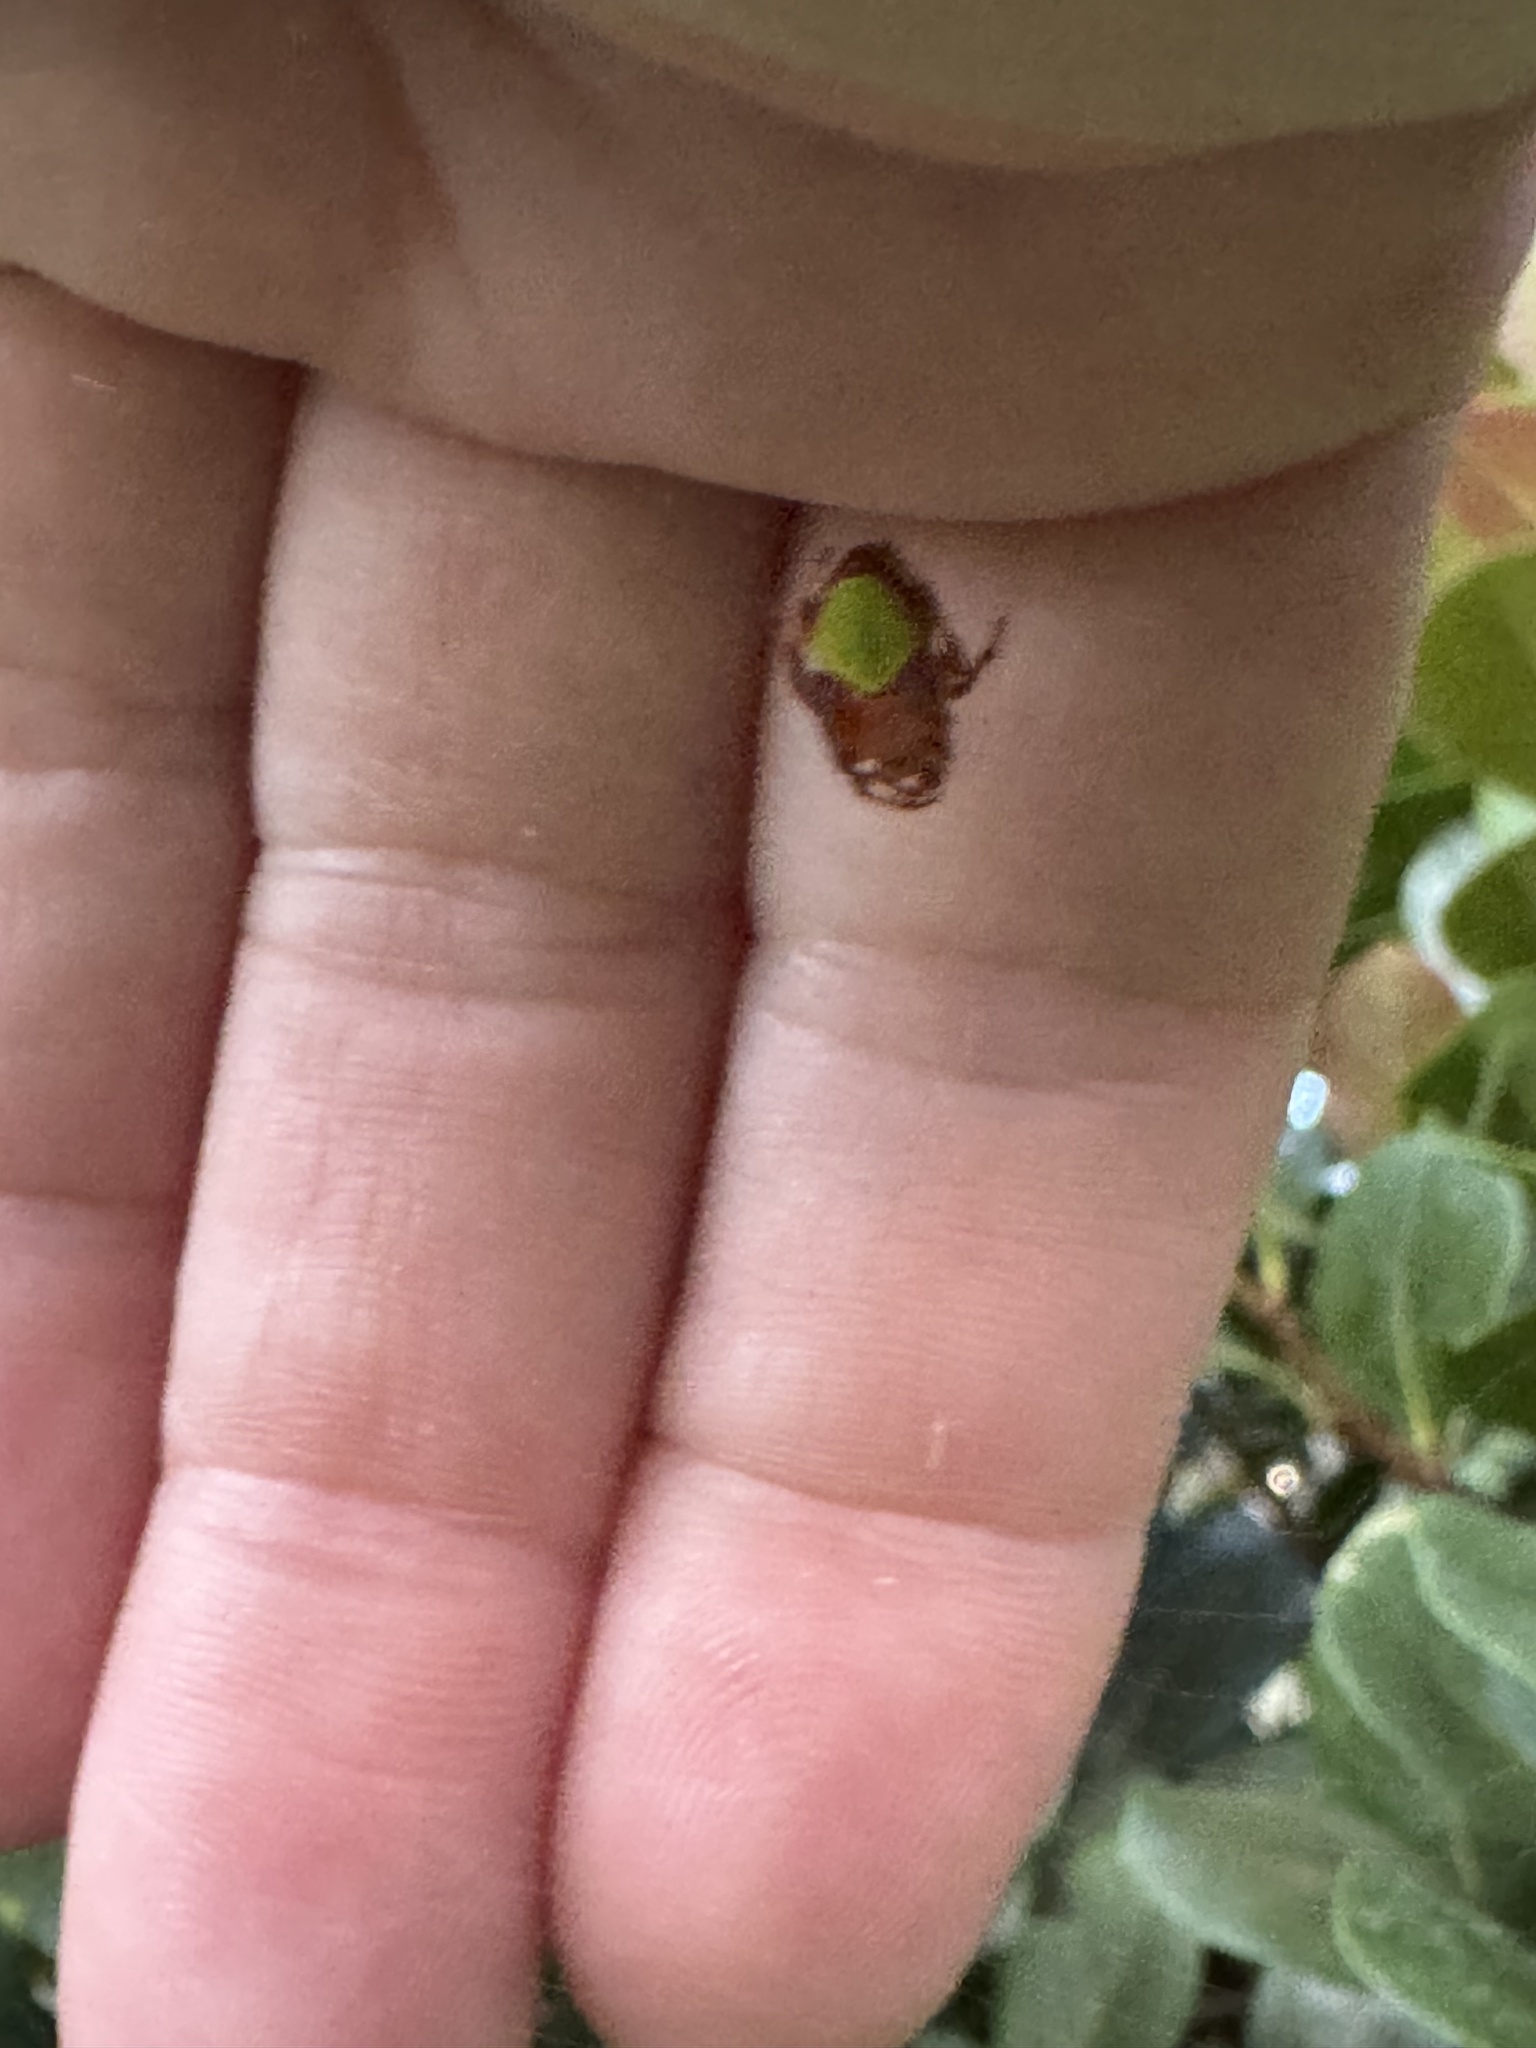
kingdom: Animalia
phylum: Arthropoda
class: Arachnida
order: Araneae
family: Araneidae
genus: Eriophora
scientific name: Eriophora ravilla
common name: Orb weavers
